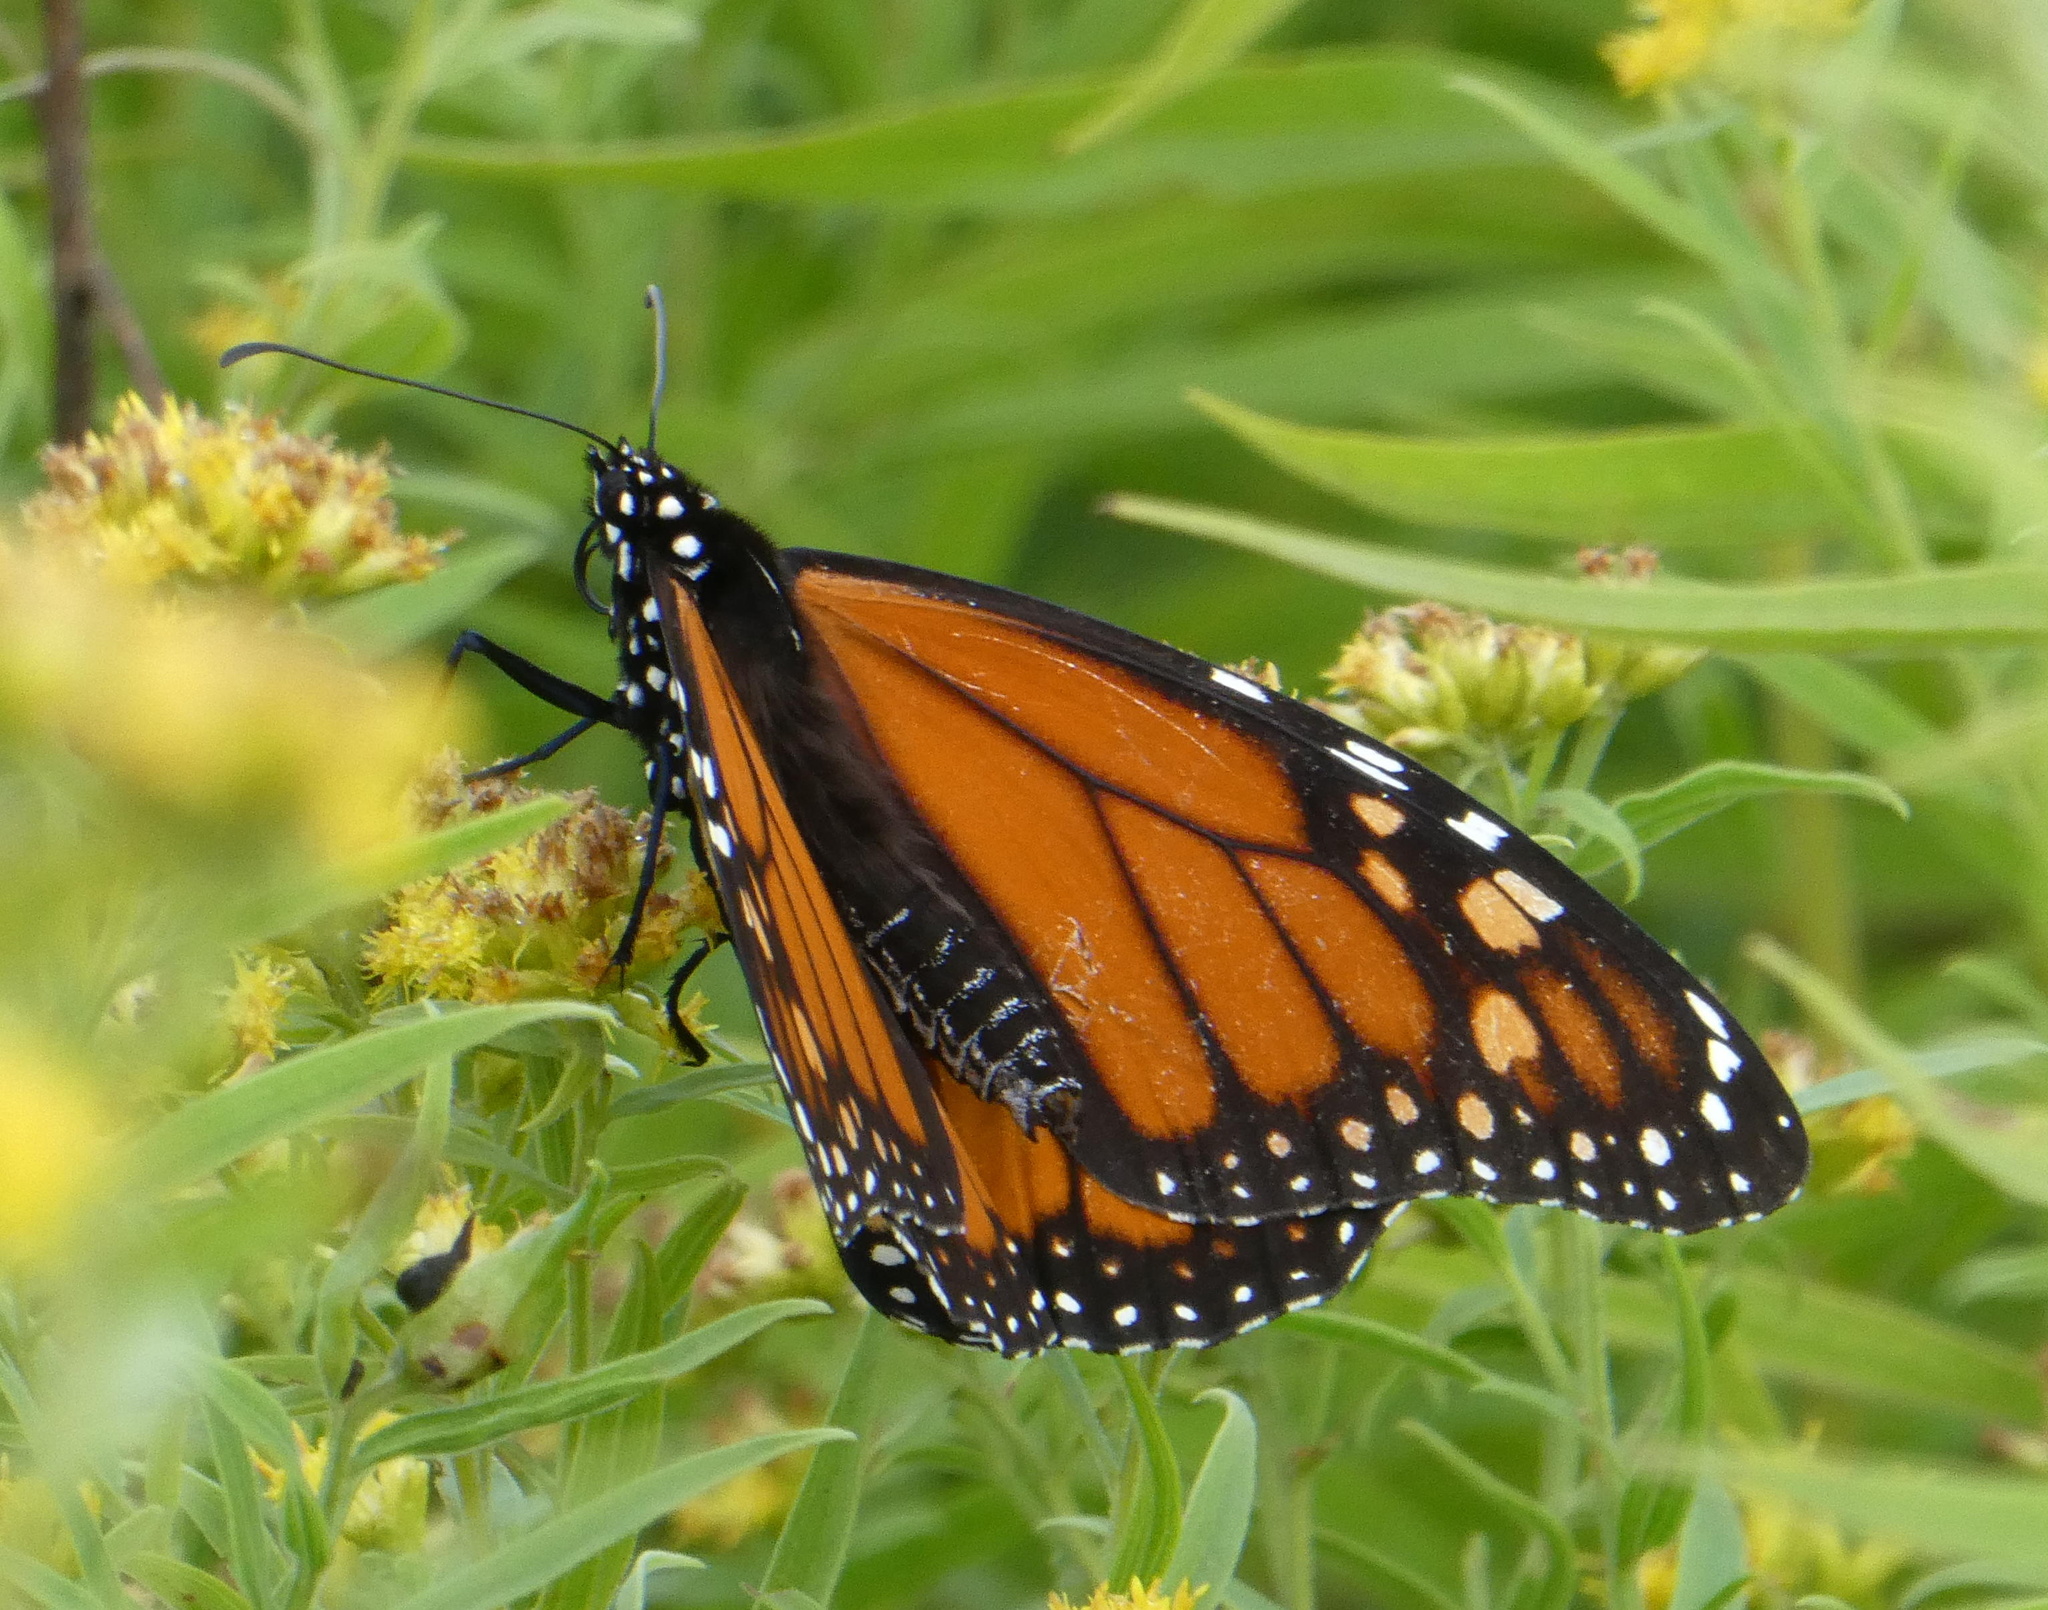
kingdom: Animalia
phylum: Arthropoda
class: Insecta
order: Lepidoptera
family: Nymphalidae
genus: Danaus
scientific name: Danaus plexippus
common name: Monarch
